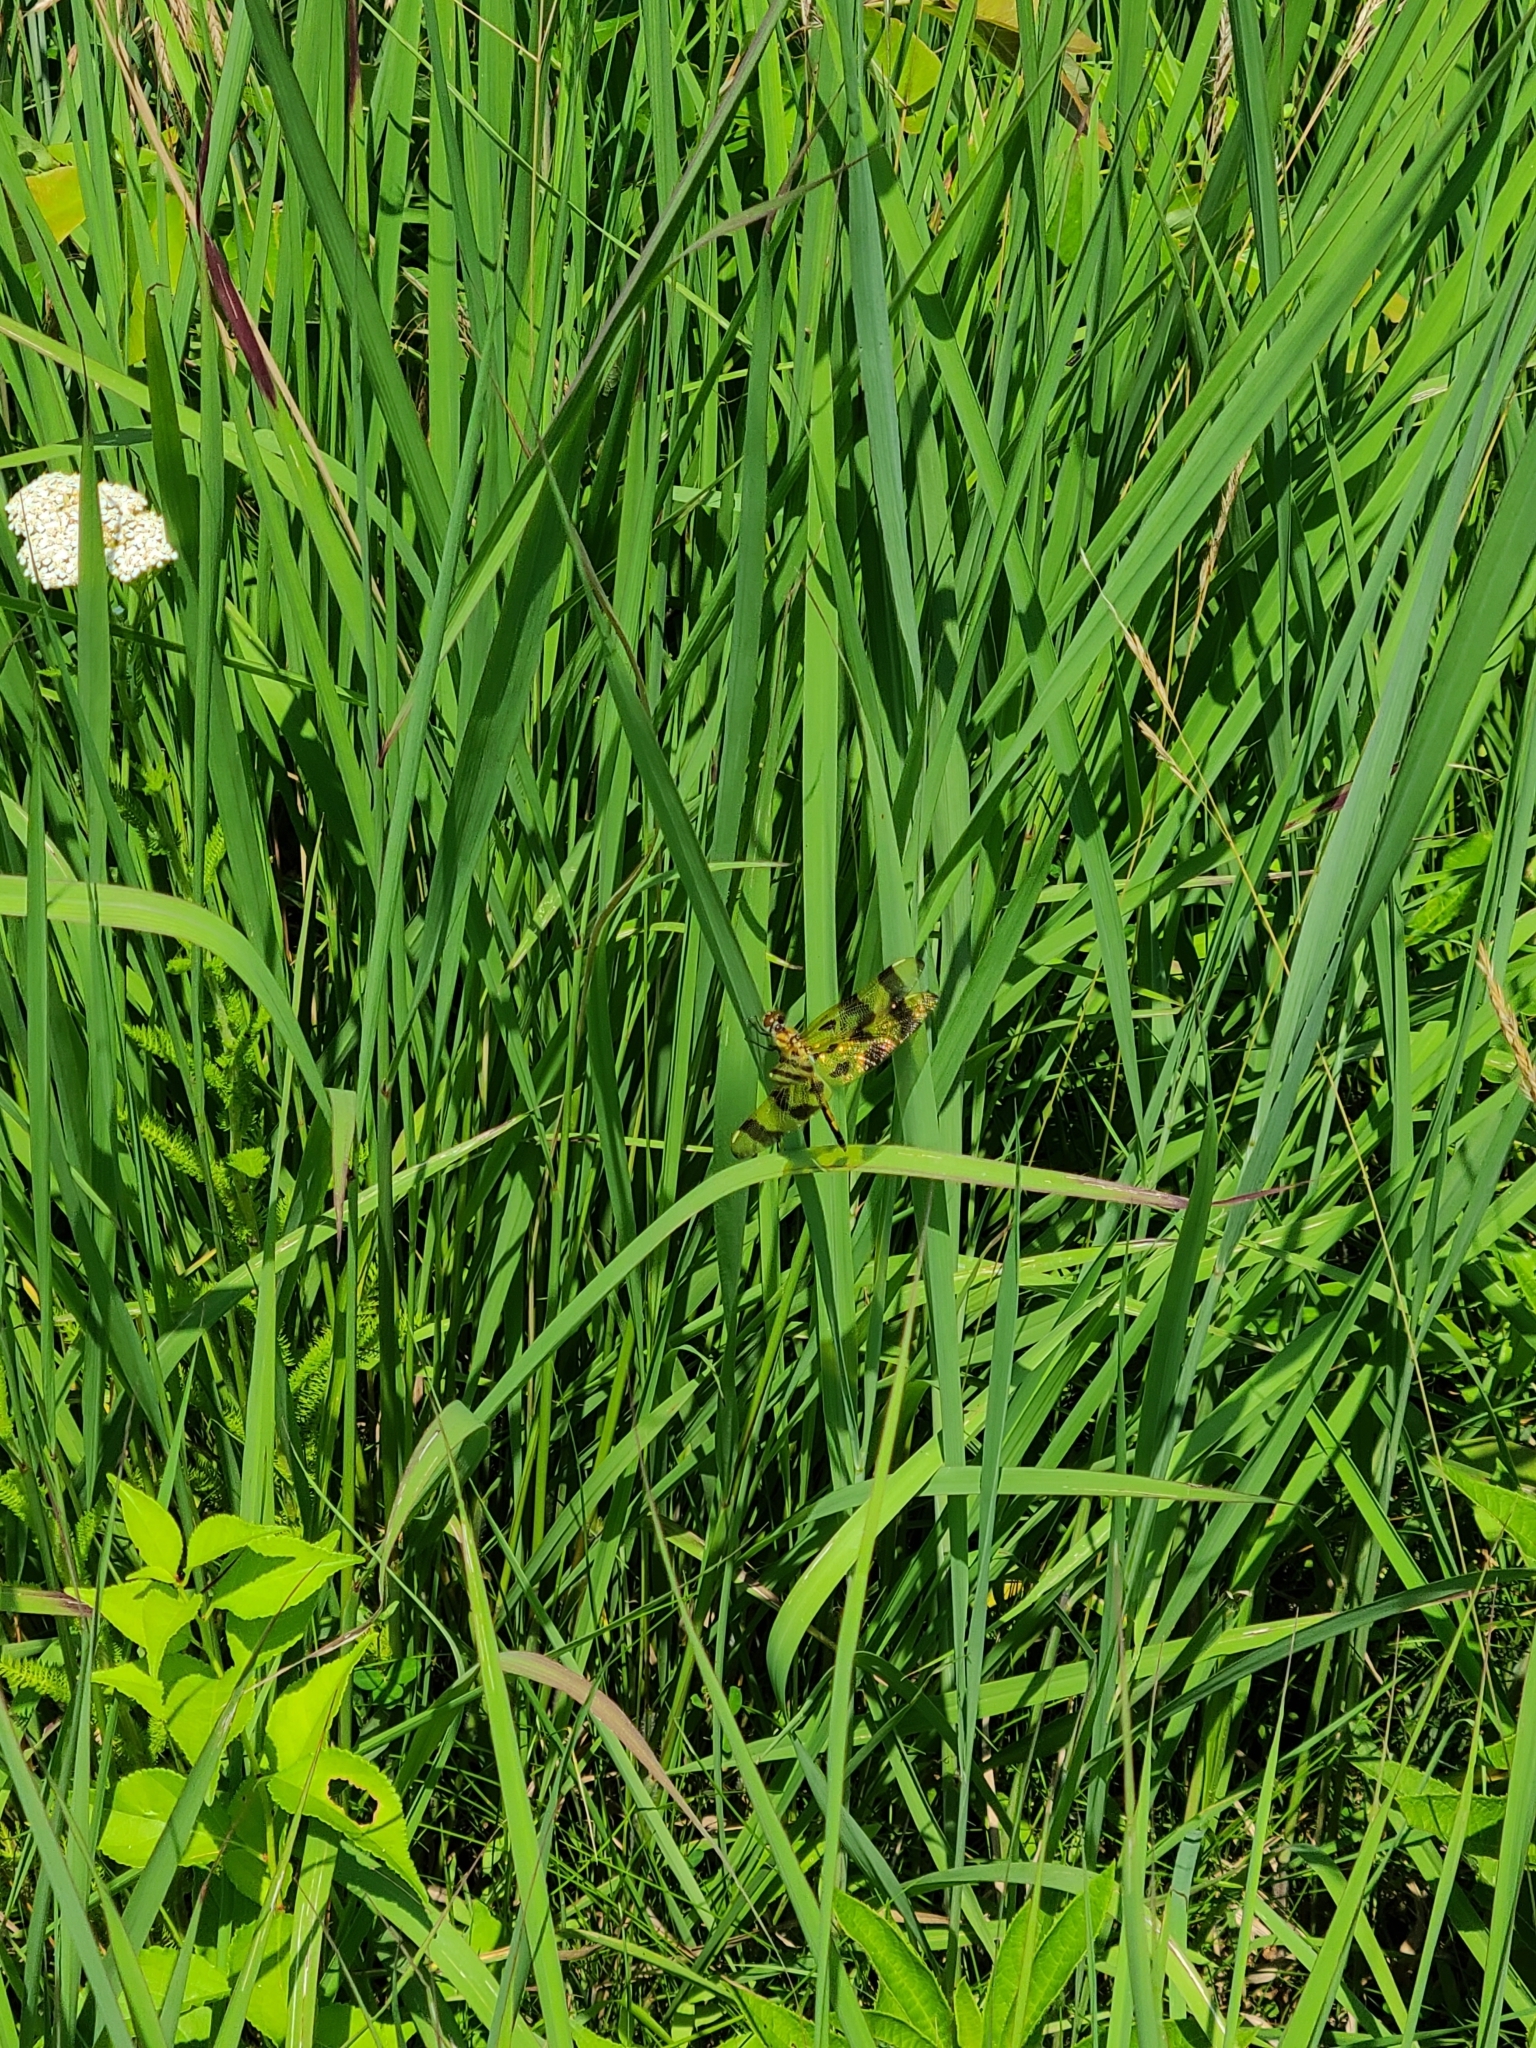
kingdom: Animalia
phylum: Arthropoda
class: Insecta
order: Odonata
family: Libellulidae
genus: Celithemis
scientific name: Celithemis eponina
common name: Halloween pennant
